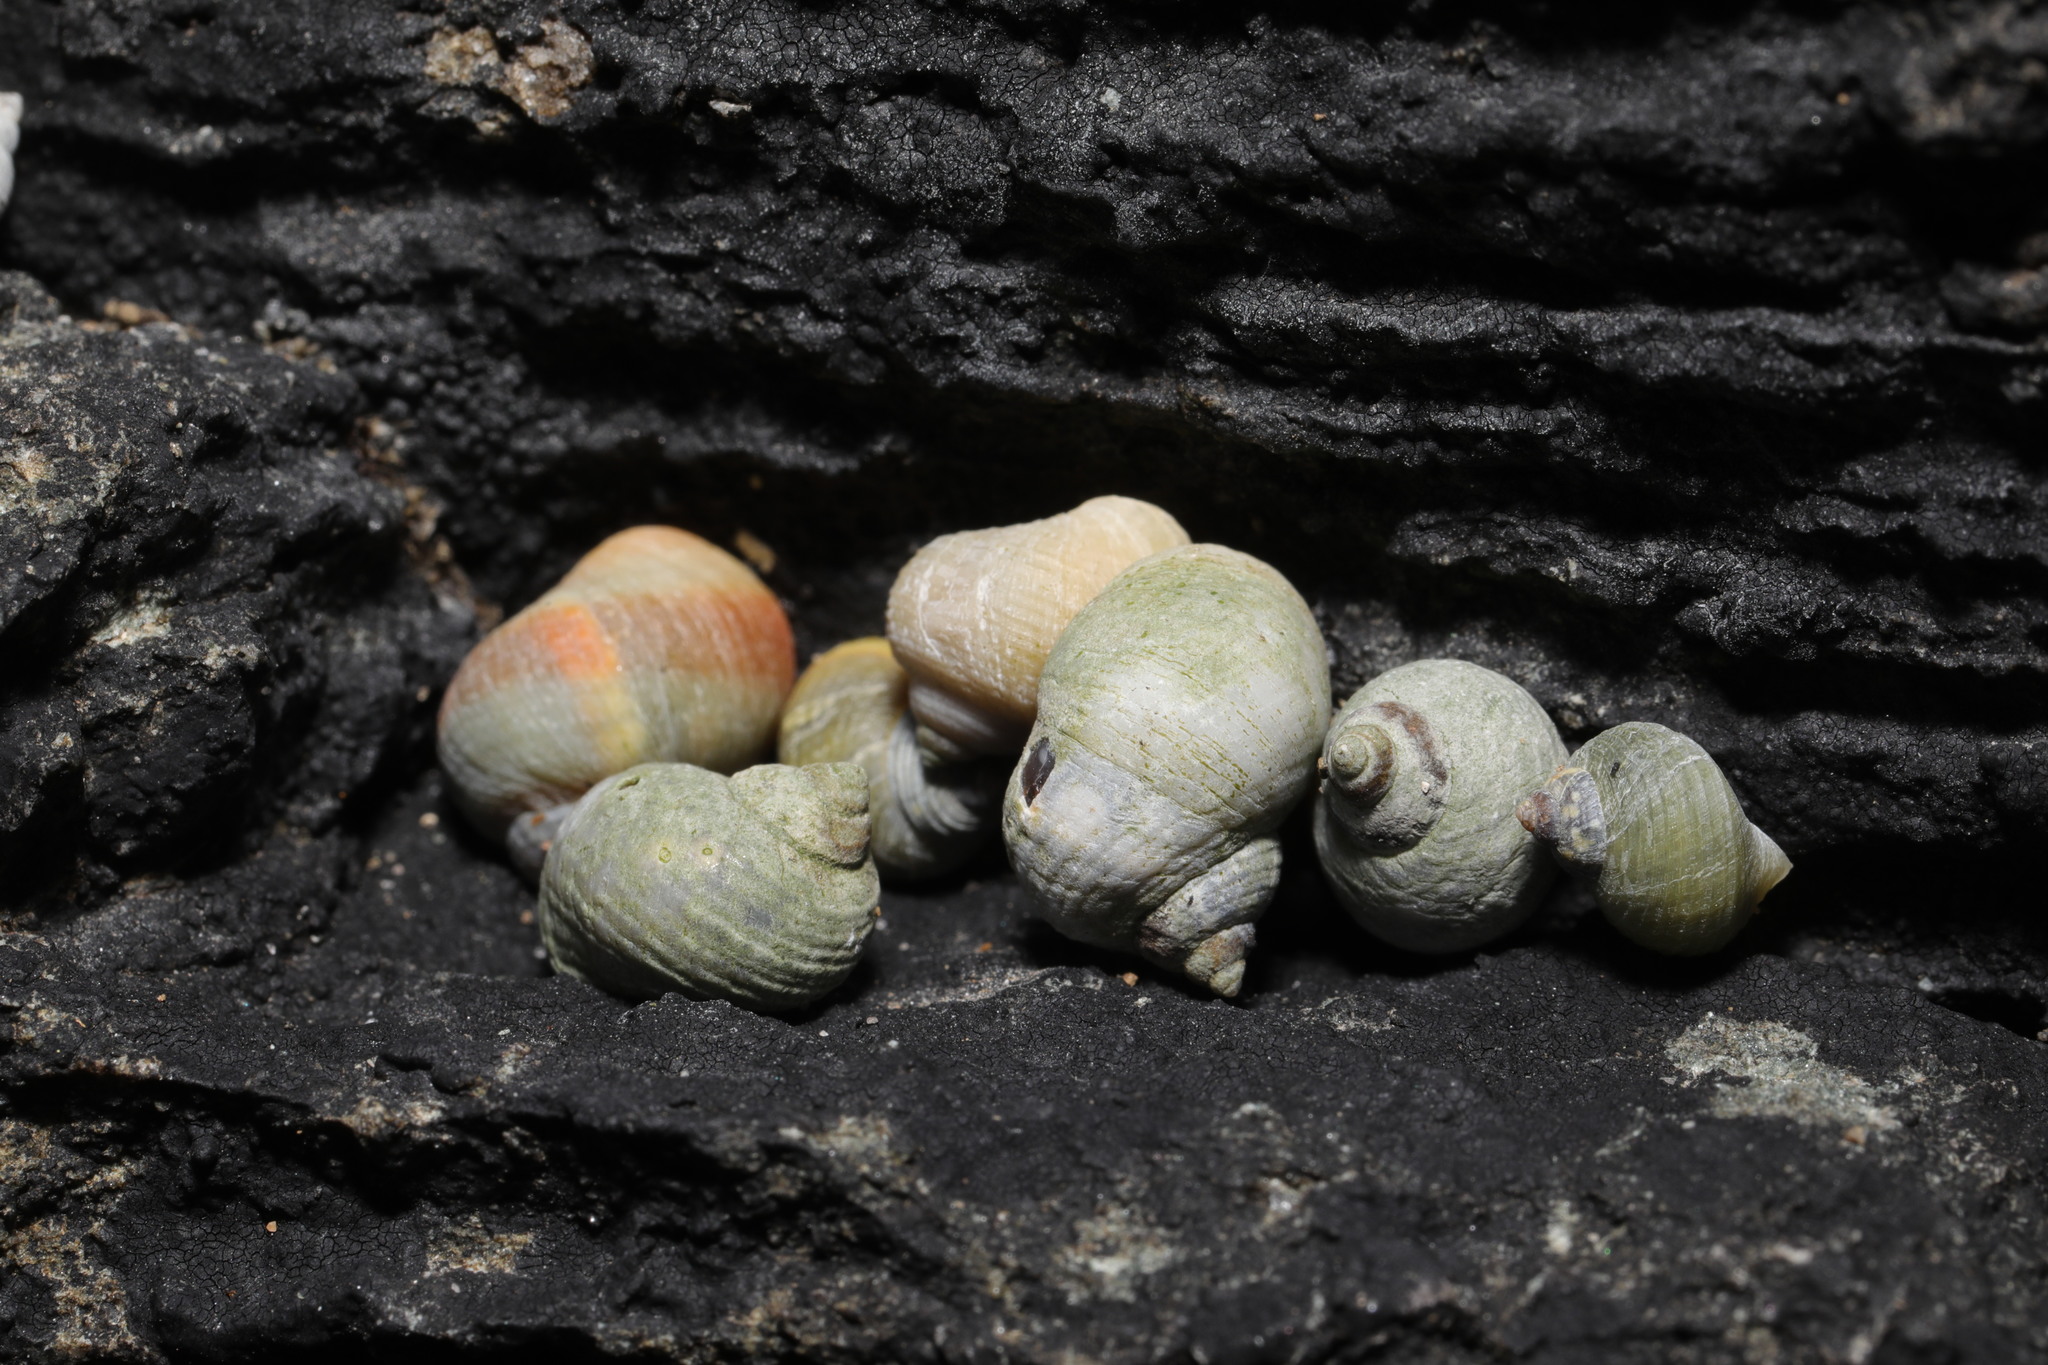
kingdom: Animalia
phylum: Mollusca
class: Gastropoda
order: Neogastropoda
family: Muricidae
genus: Nucella
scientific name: Nucella lapillus
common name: Dog whelk
